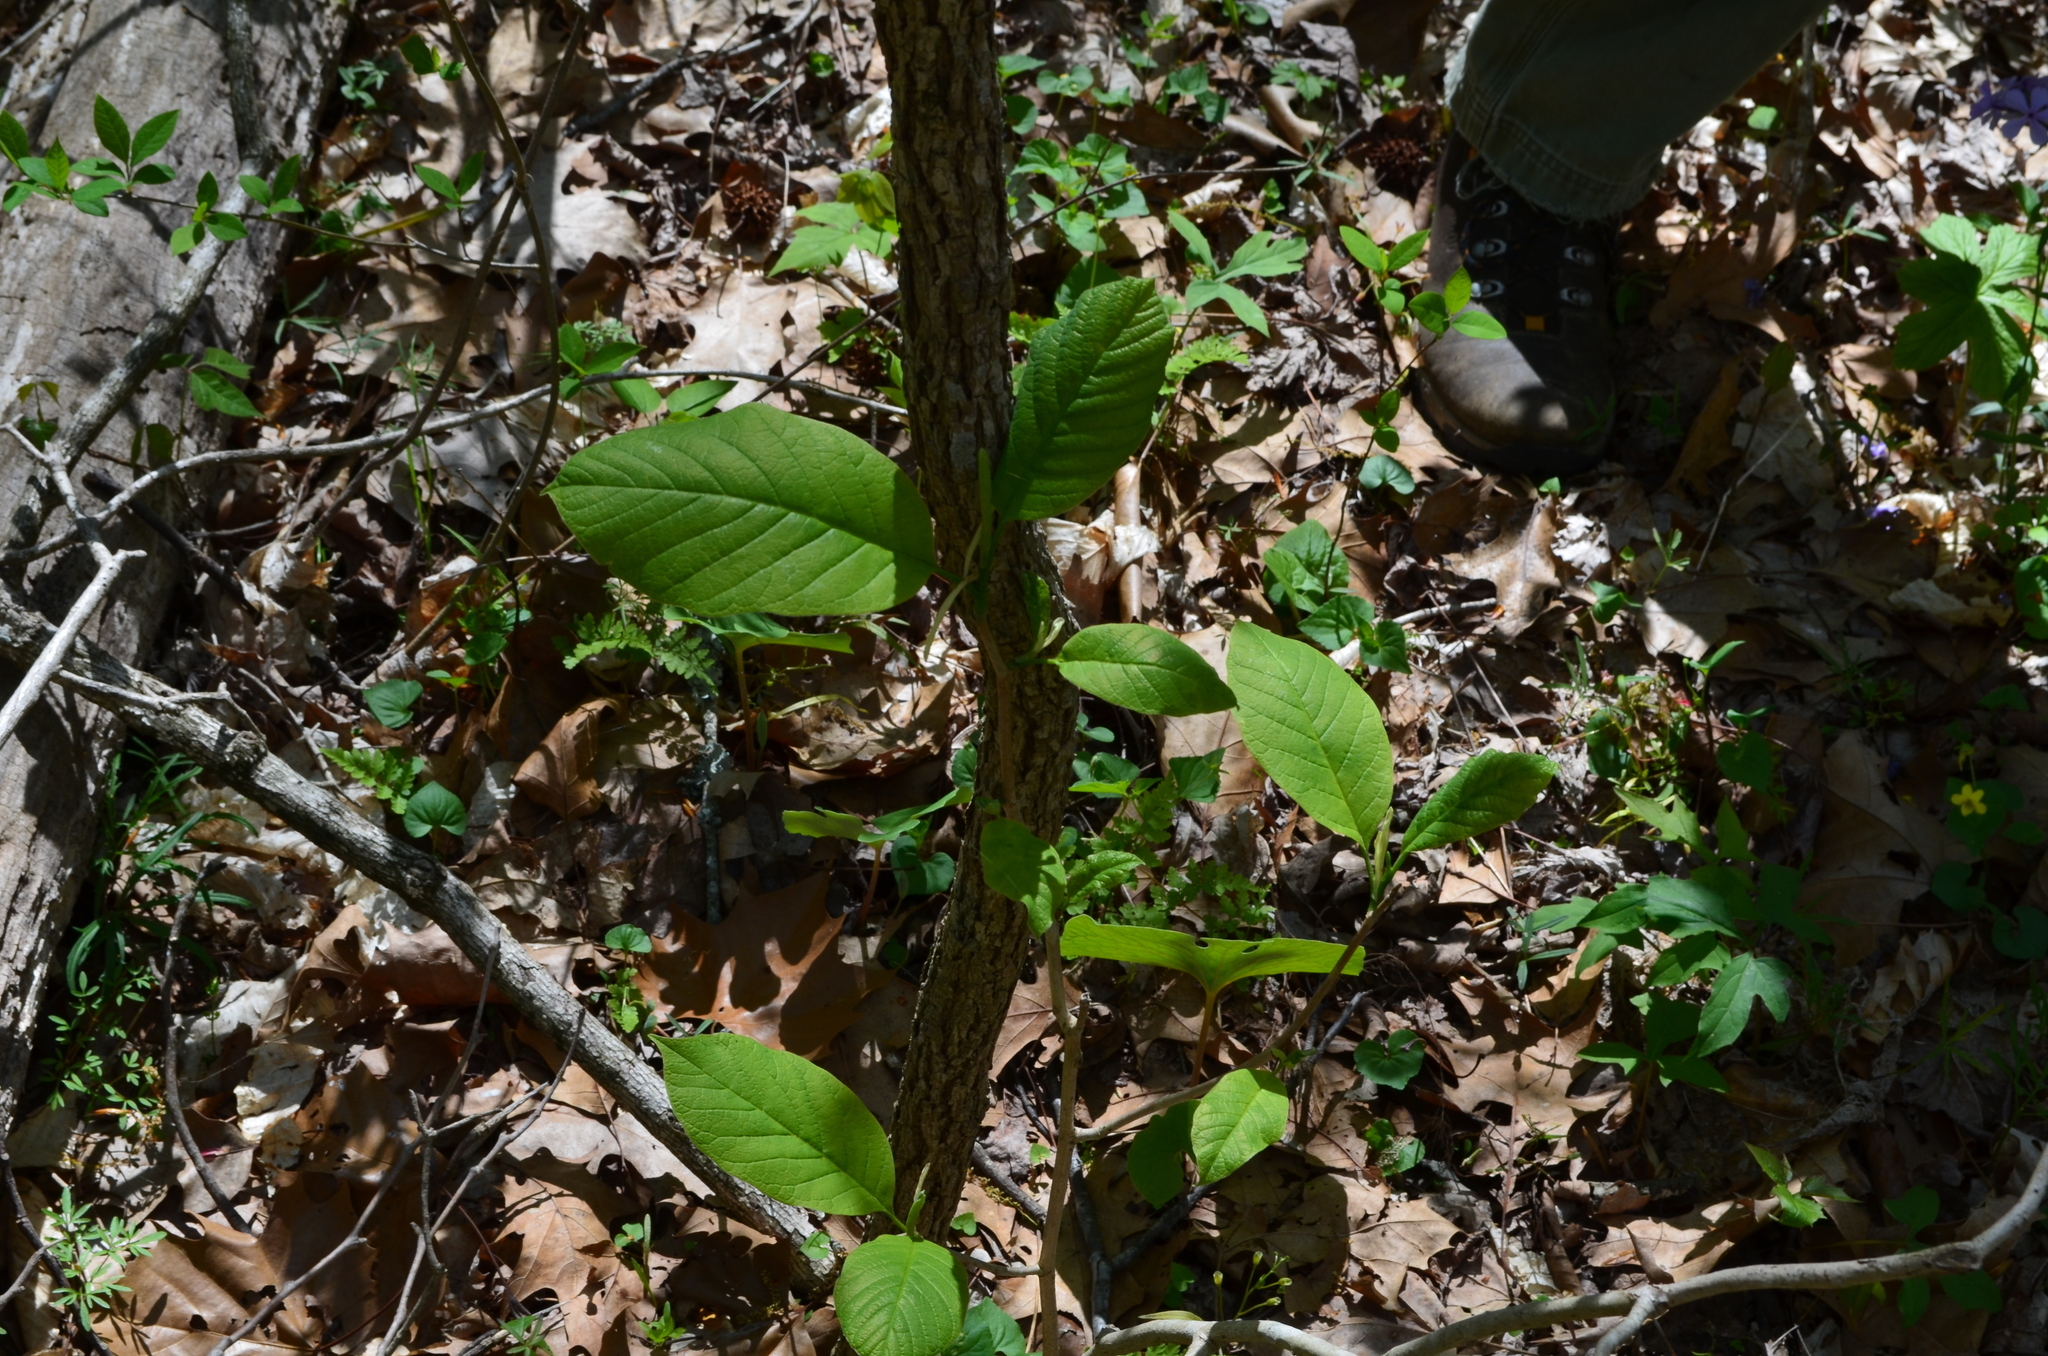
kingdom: Plantae
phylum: Tracheophyta
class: Magnoliopsida
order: Magnoliales
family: Magnoliaceae
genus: Magnolia
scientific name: Magnolia acuminata
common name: Cucumber magnolia
